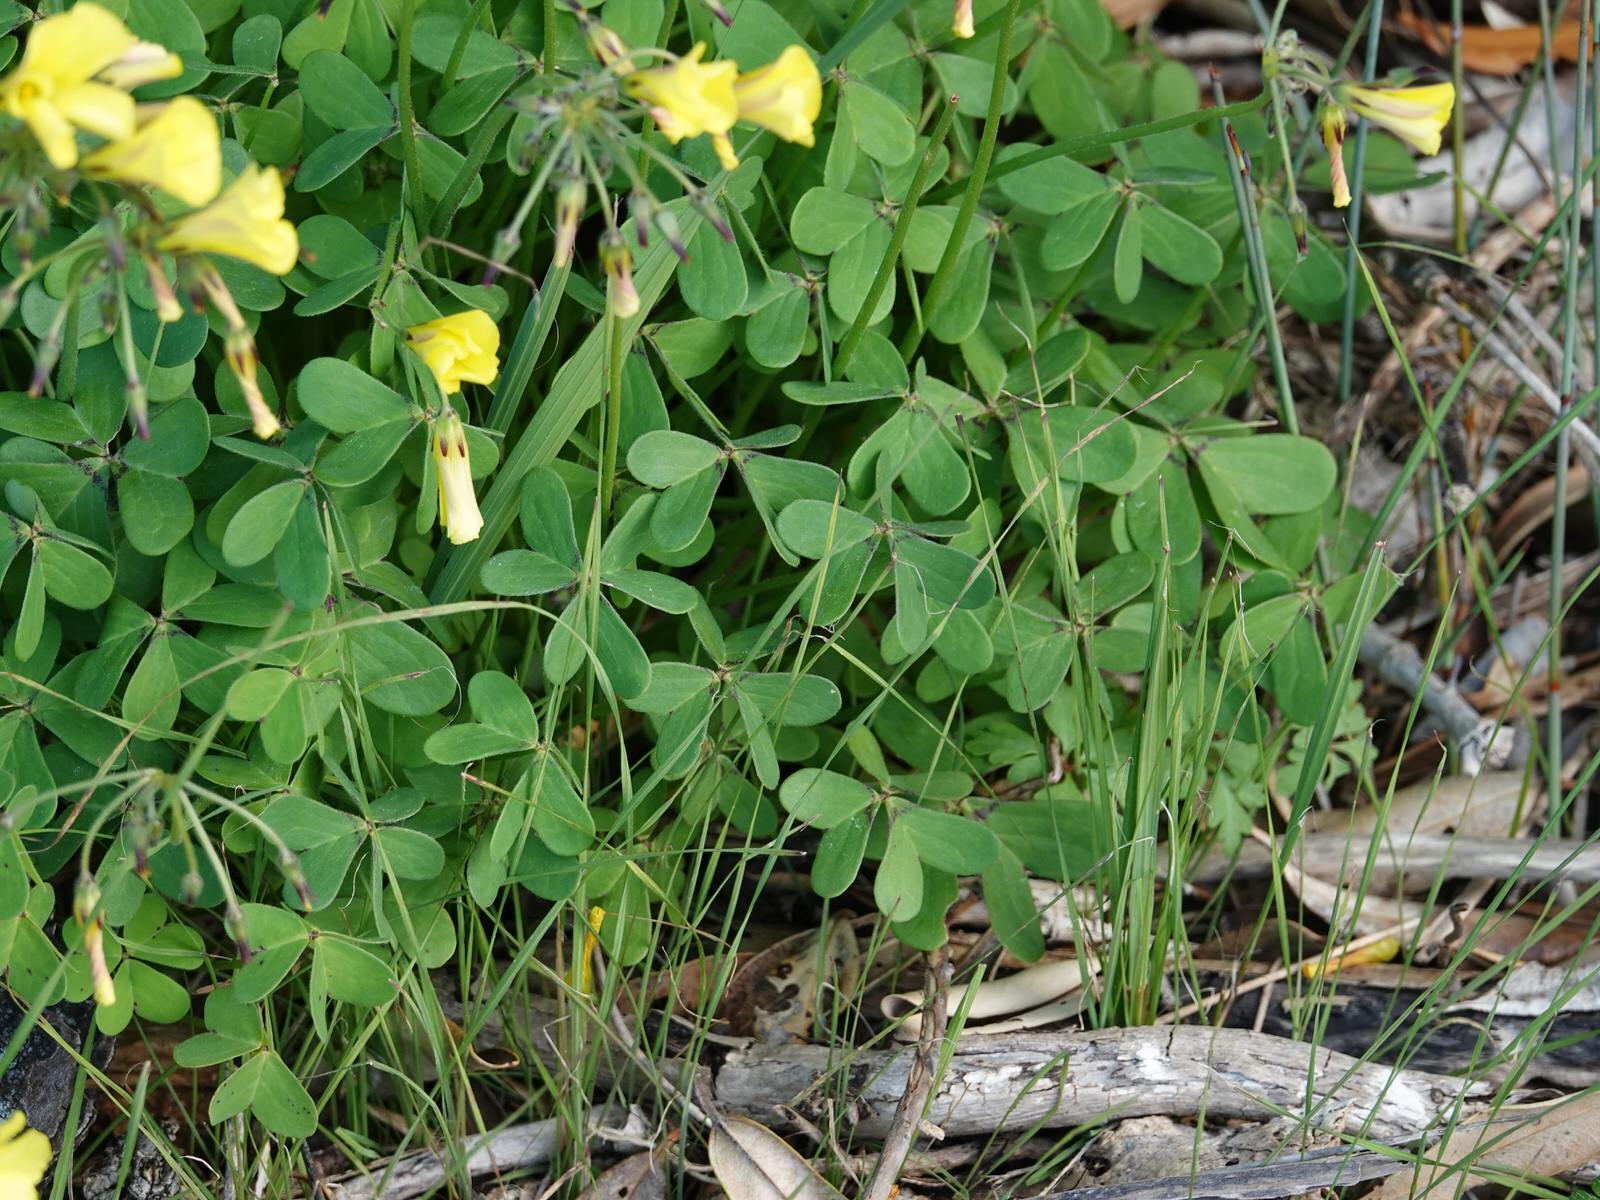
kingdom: Plantae
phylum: Tracheophyta
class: Magnoliopsida
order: Oxalidales
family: Oxalidaceae
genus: Oxalis
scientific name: Oxalis pes-caprae
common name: Bermuda-buttercup
